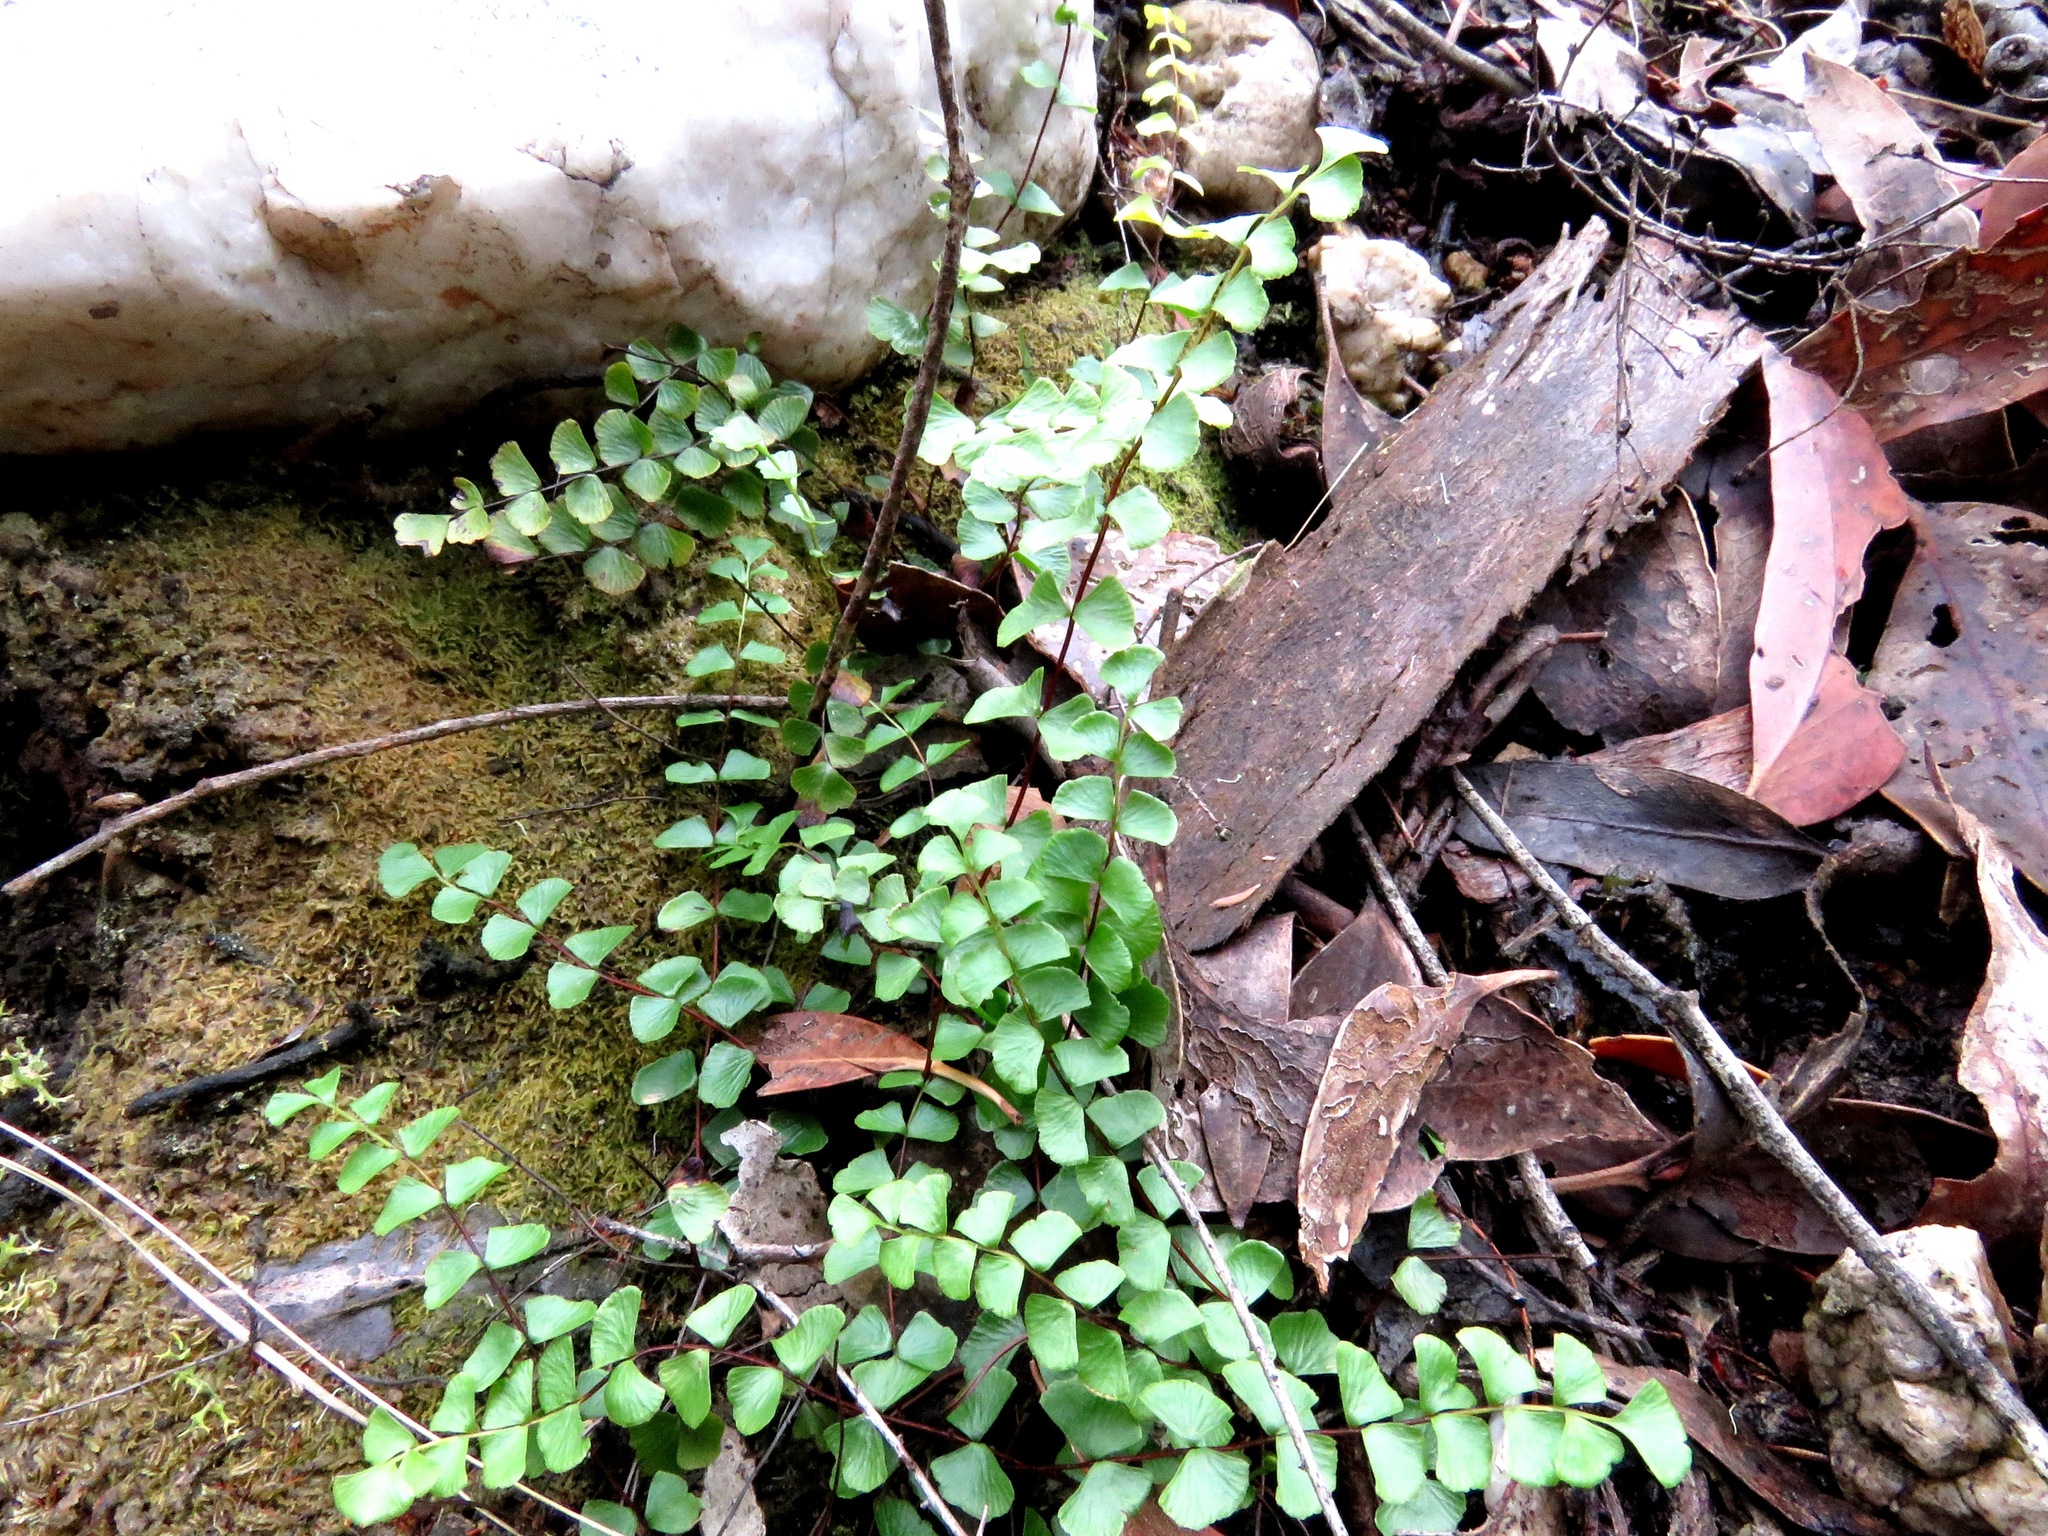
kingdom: Plantae
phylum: Tracheophyta
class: Polypodiopsida
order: Polypodiales
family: Lindsaeaceae
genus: Lindsaea
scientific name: Lindsaea linearis
